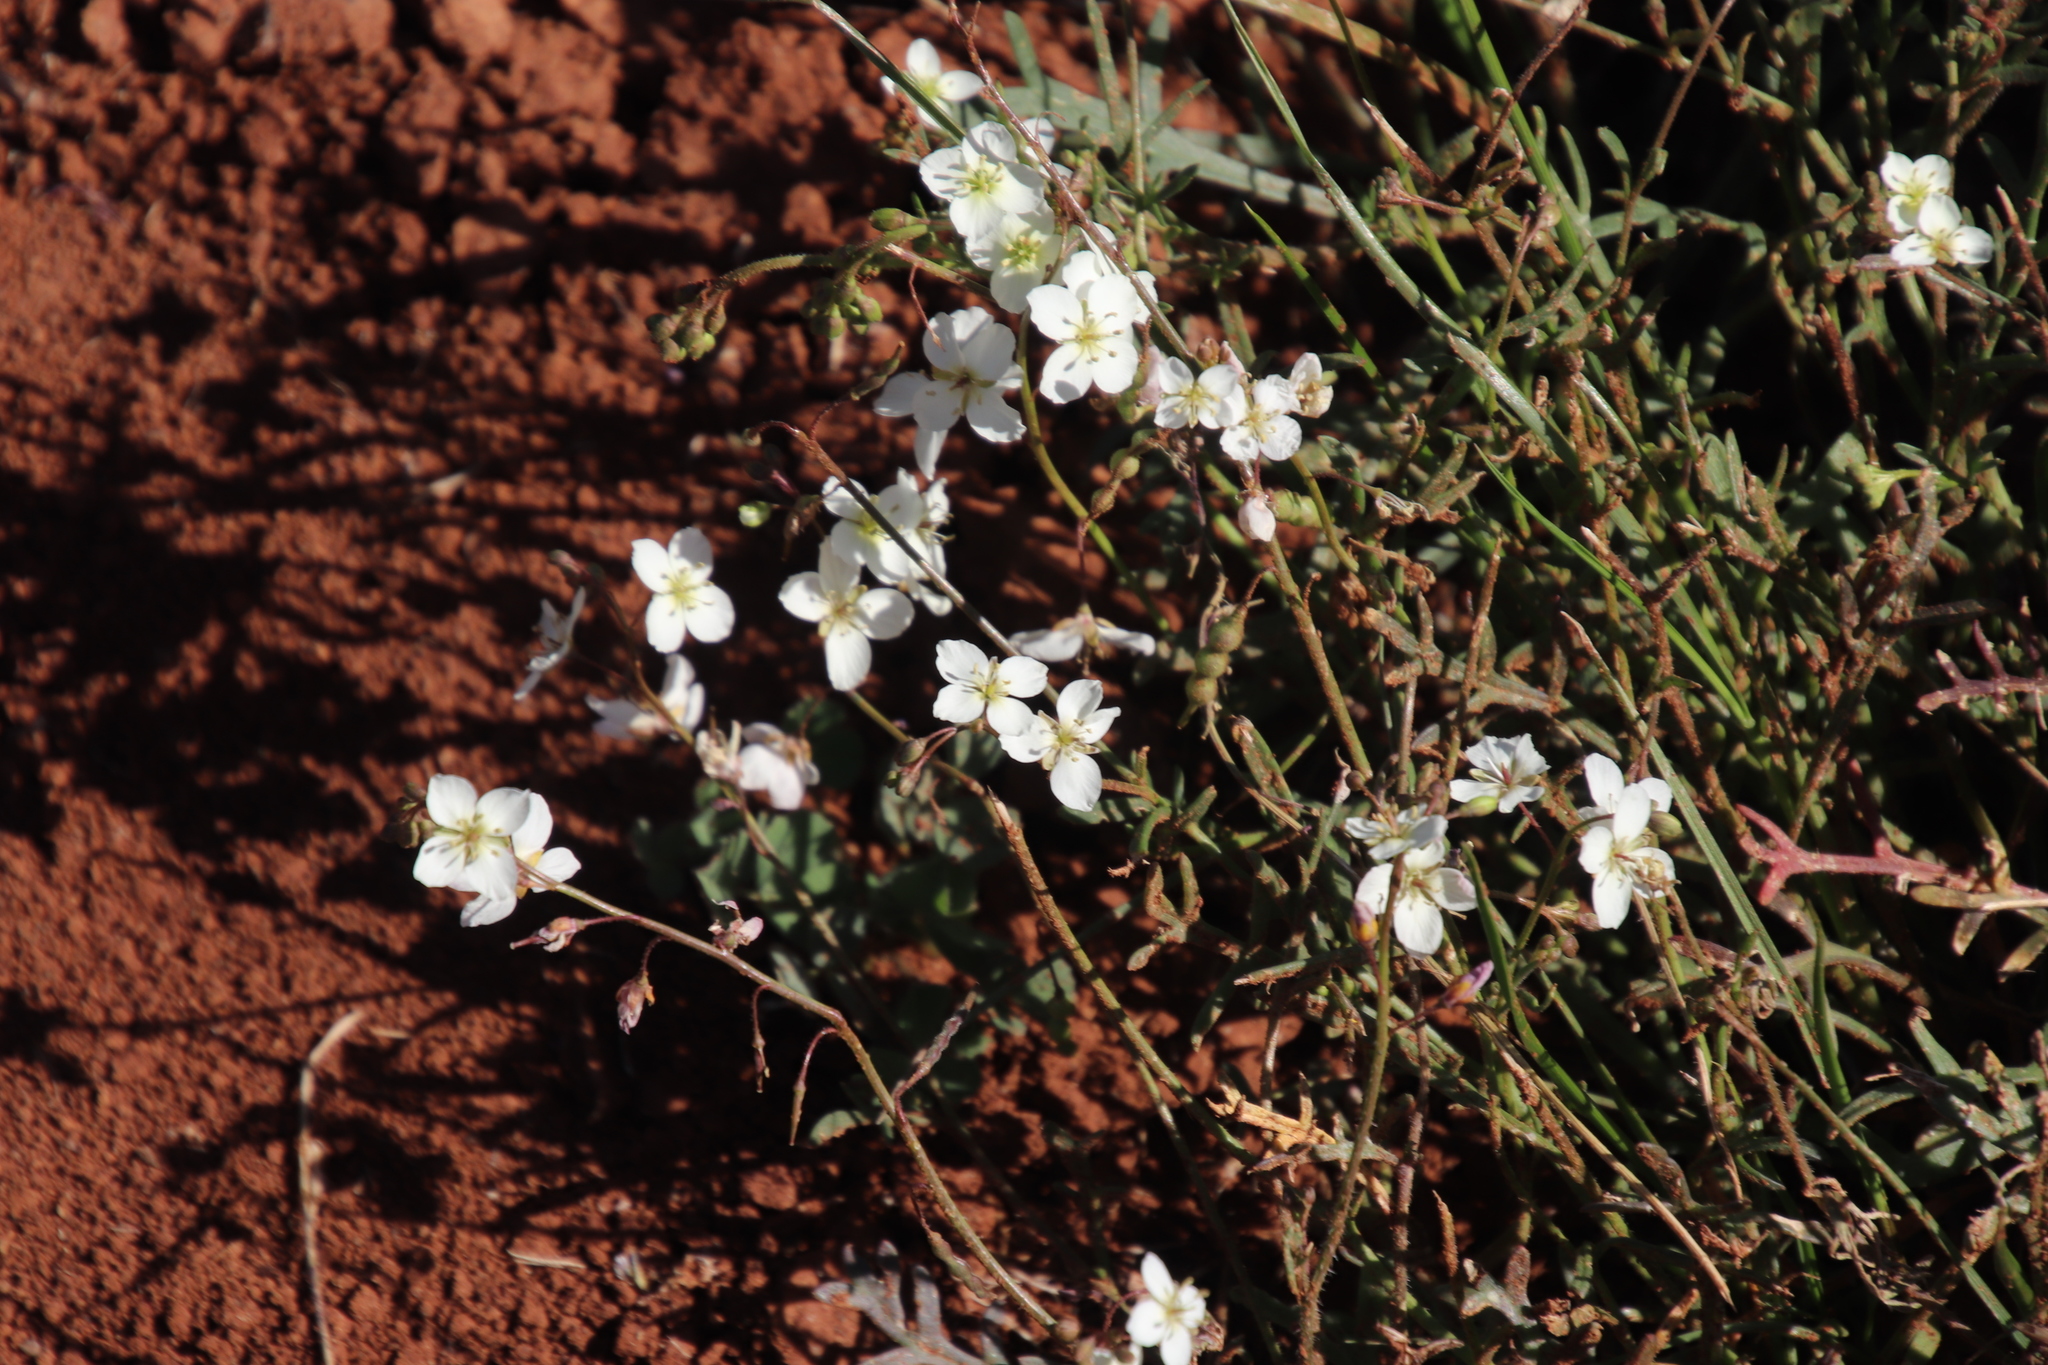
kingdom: Plantae
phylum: Tracheophyta
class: Magnoliopsida
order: Brassicales
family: Brassicaceae
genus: Heliophila
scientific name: Heliophila collina
